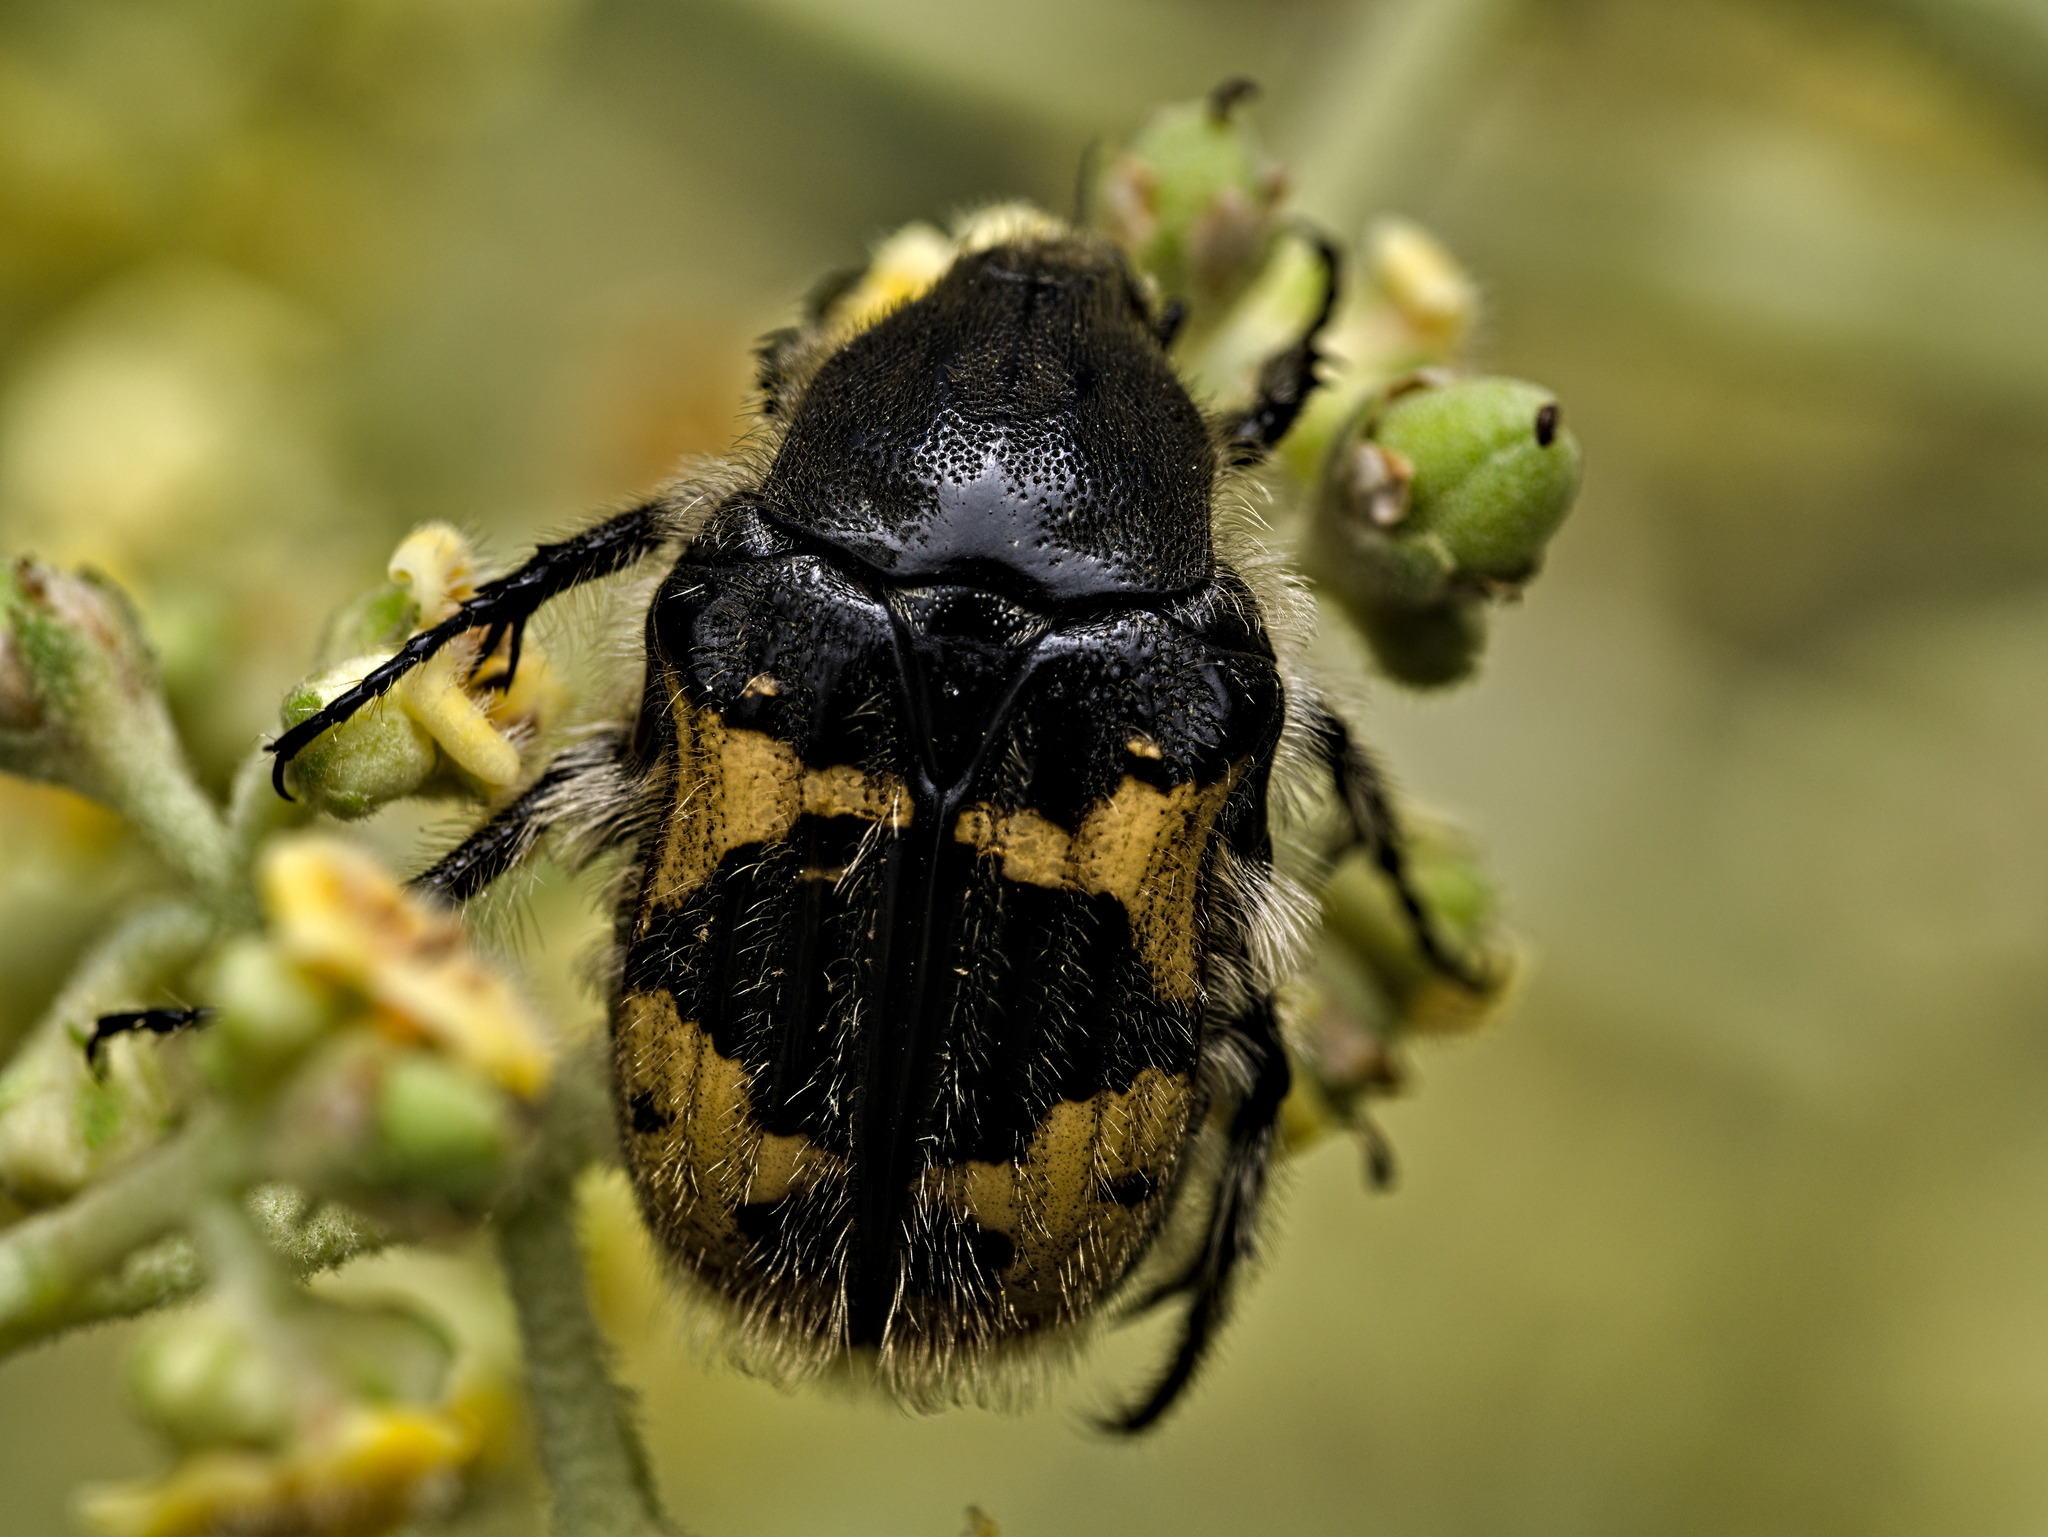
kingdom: Animalia
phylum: Arthropoda
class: Insecta
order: Coleoptera
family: Scarabaeidae
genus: Euphoria
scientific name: Euphoria basalis
